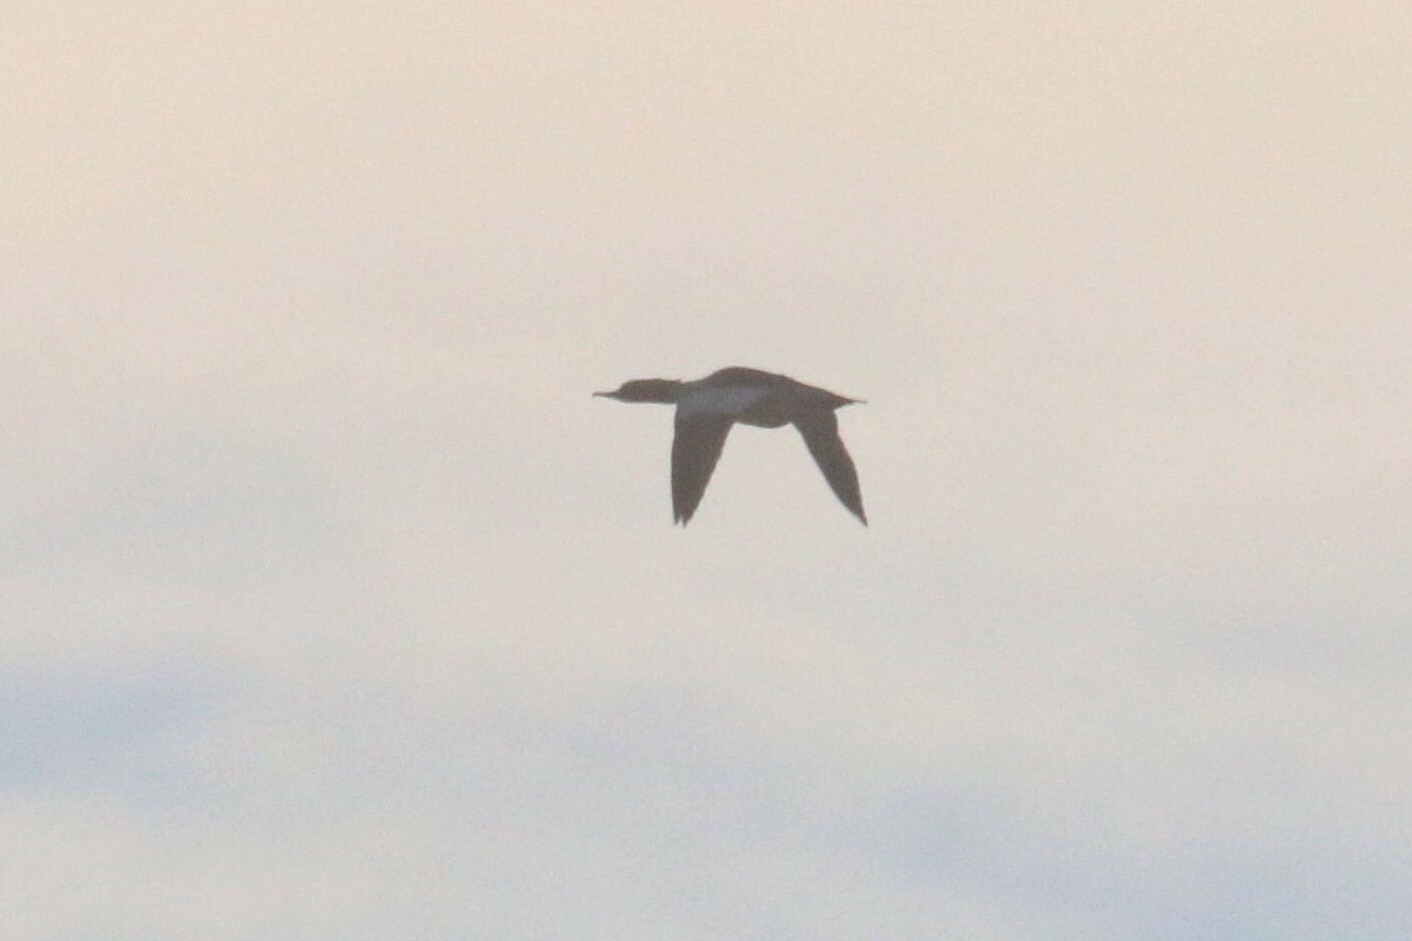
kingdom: Animalia
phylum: Chordata
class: Aves
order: Anseriformes
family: Anatidae
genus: Mergus
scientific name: Mergus merganser
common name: Common merganser
